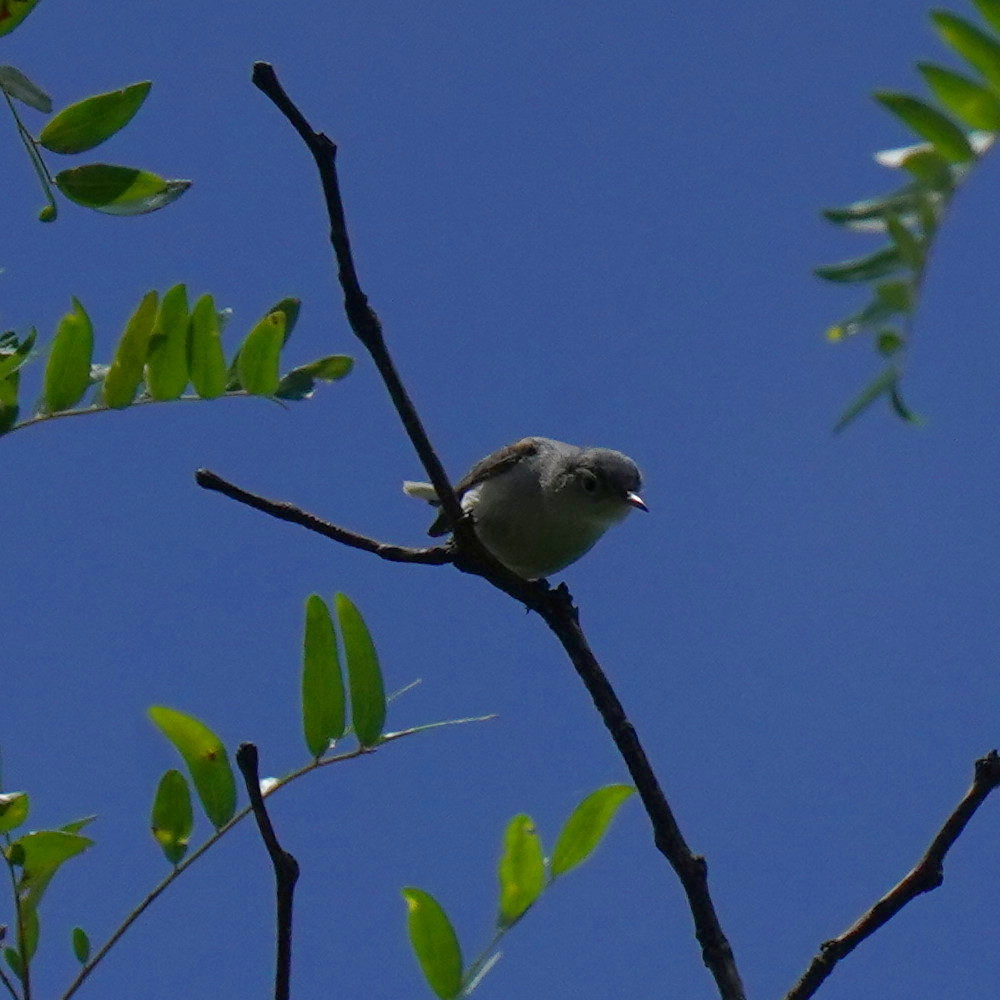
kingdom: Animalia
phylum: Chordata
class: Aves
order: Passeriformes
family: Polioptilidae
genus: Polioptila
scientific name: Polioptila caerulea
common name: Blue-gray gnatcatcher
